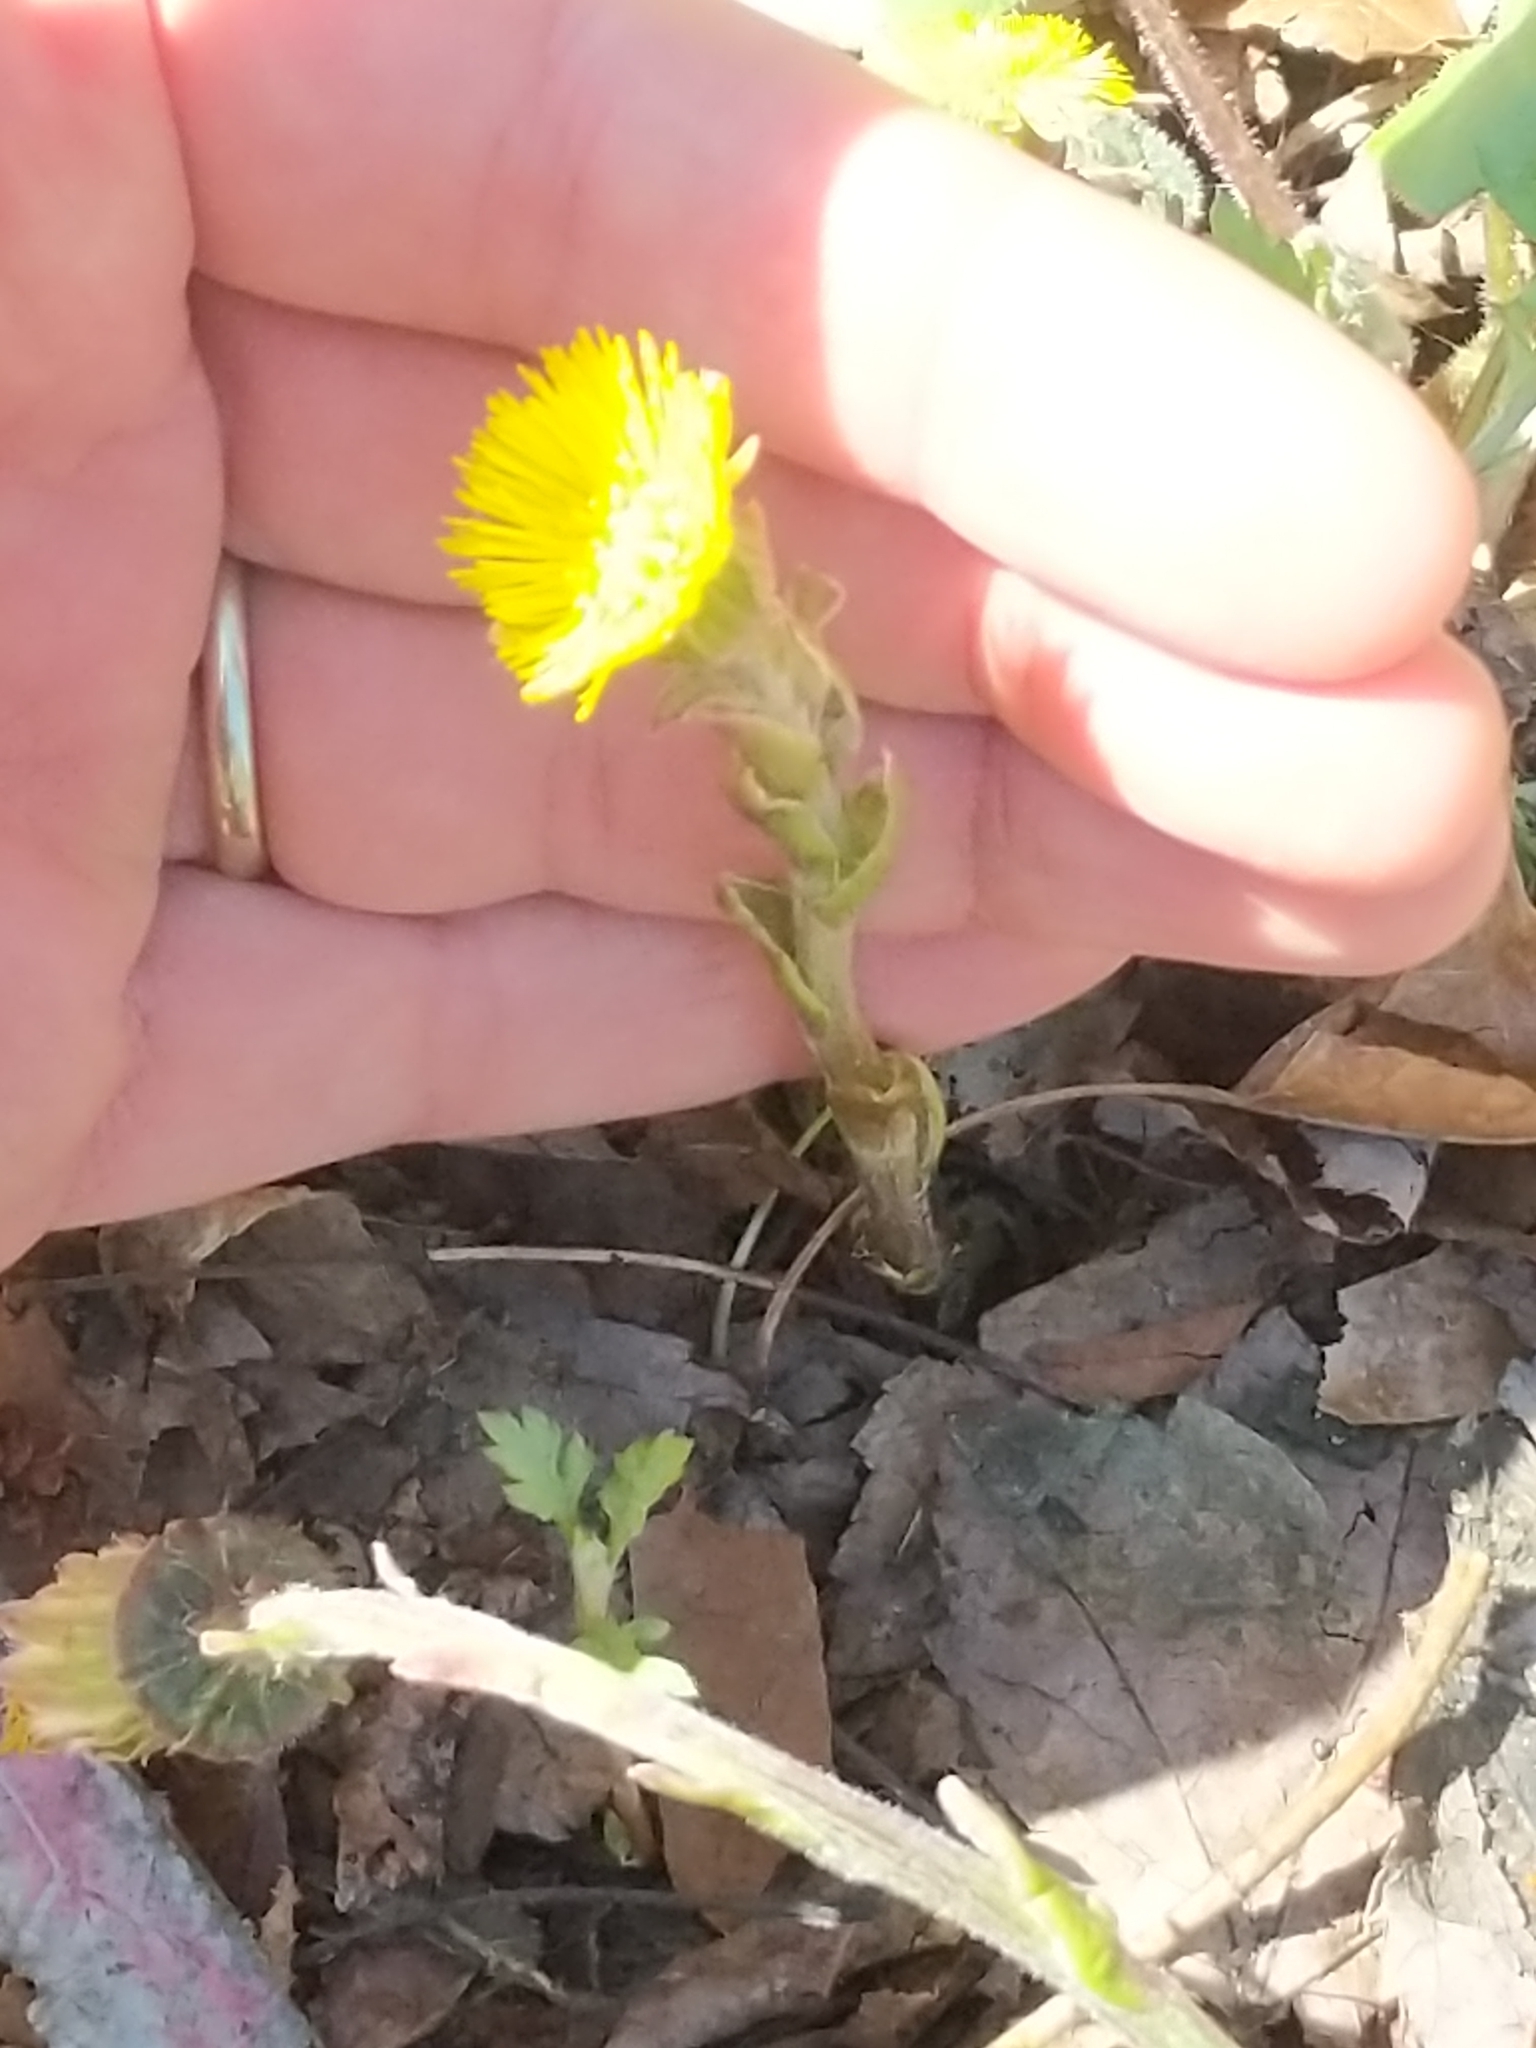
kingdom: Plantae
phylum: Tracheophyta
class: Magnoliopsida
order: Asterales
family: Asteraceae
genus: Tussilago
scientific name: Tussilago farfara
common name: Coltsfoot
